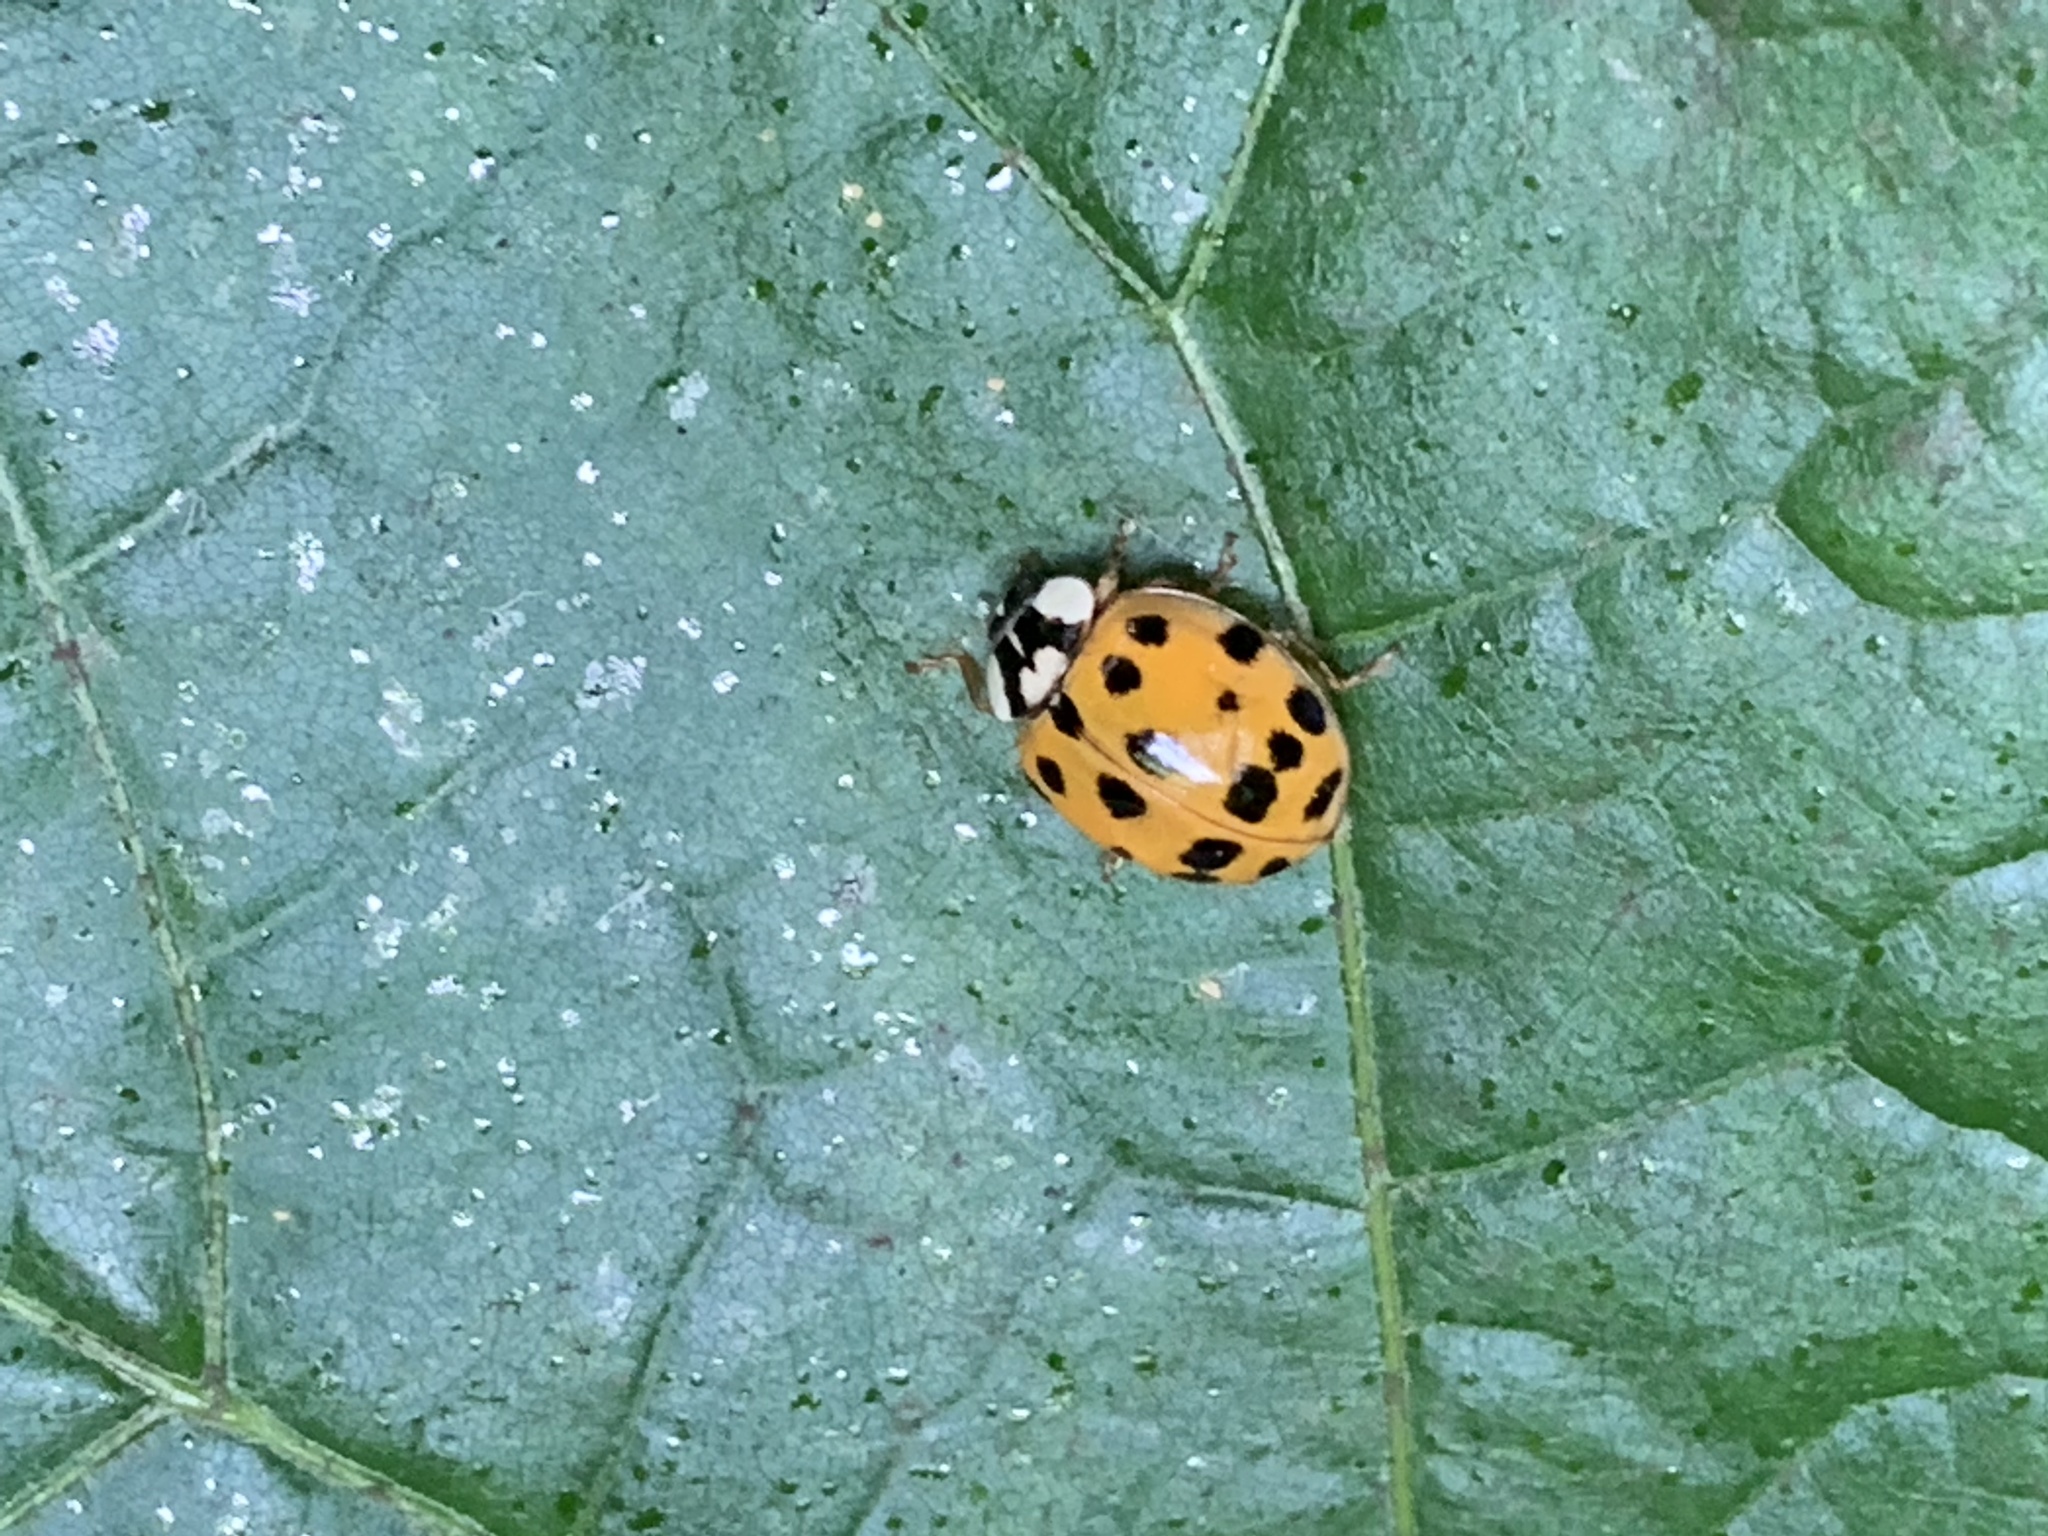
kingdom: Animalia
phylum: Arthropoda
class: Insecta
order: Coleoptera
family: Coccinellidae
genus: Harmonia
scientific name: Harmonia axyridis
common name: Harlequin ladybird
